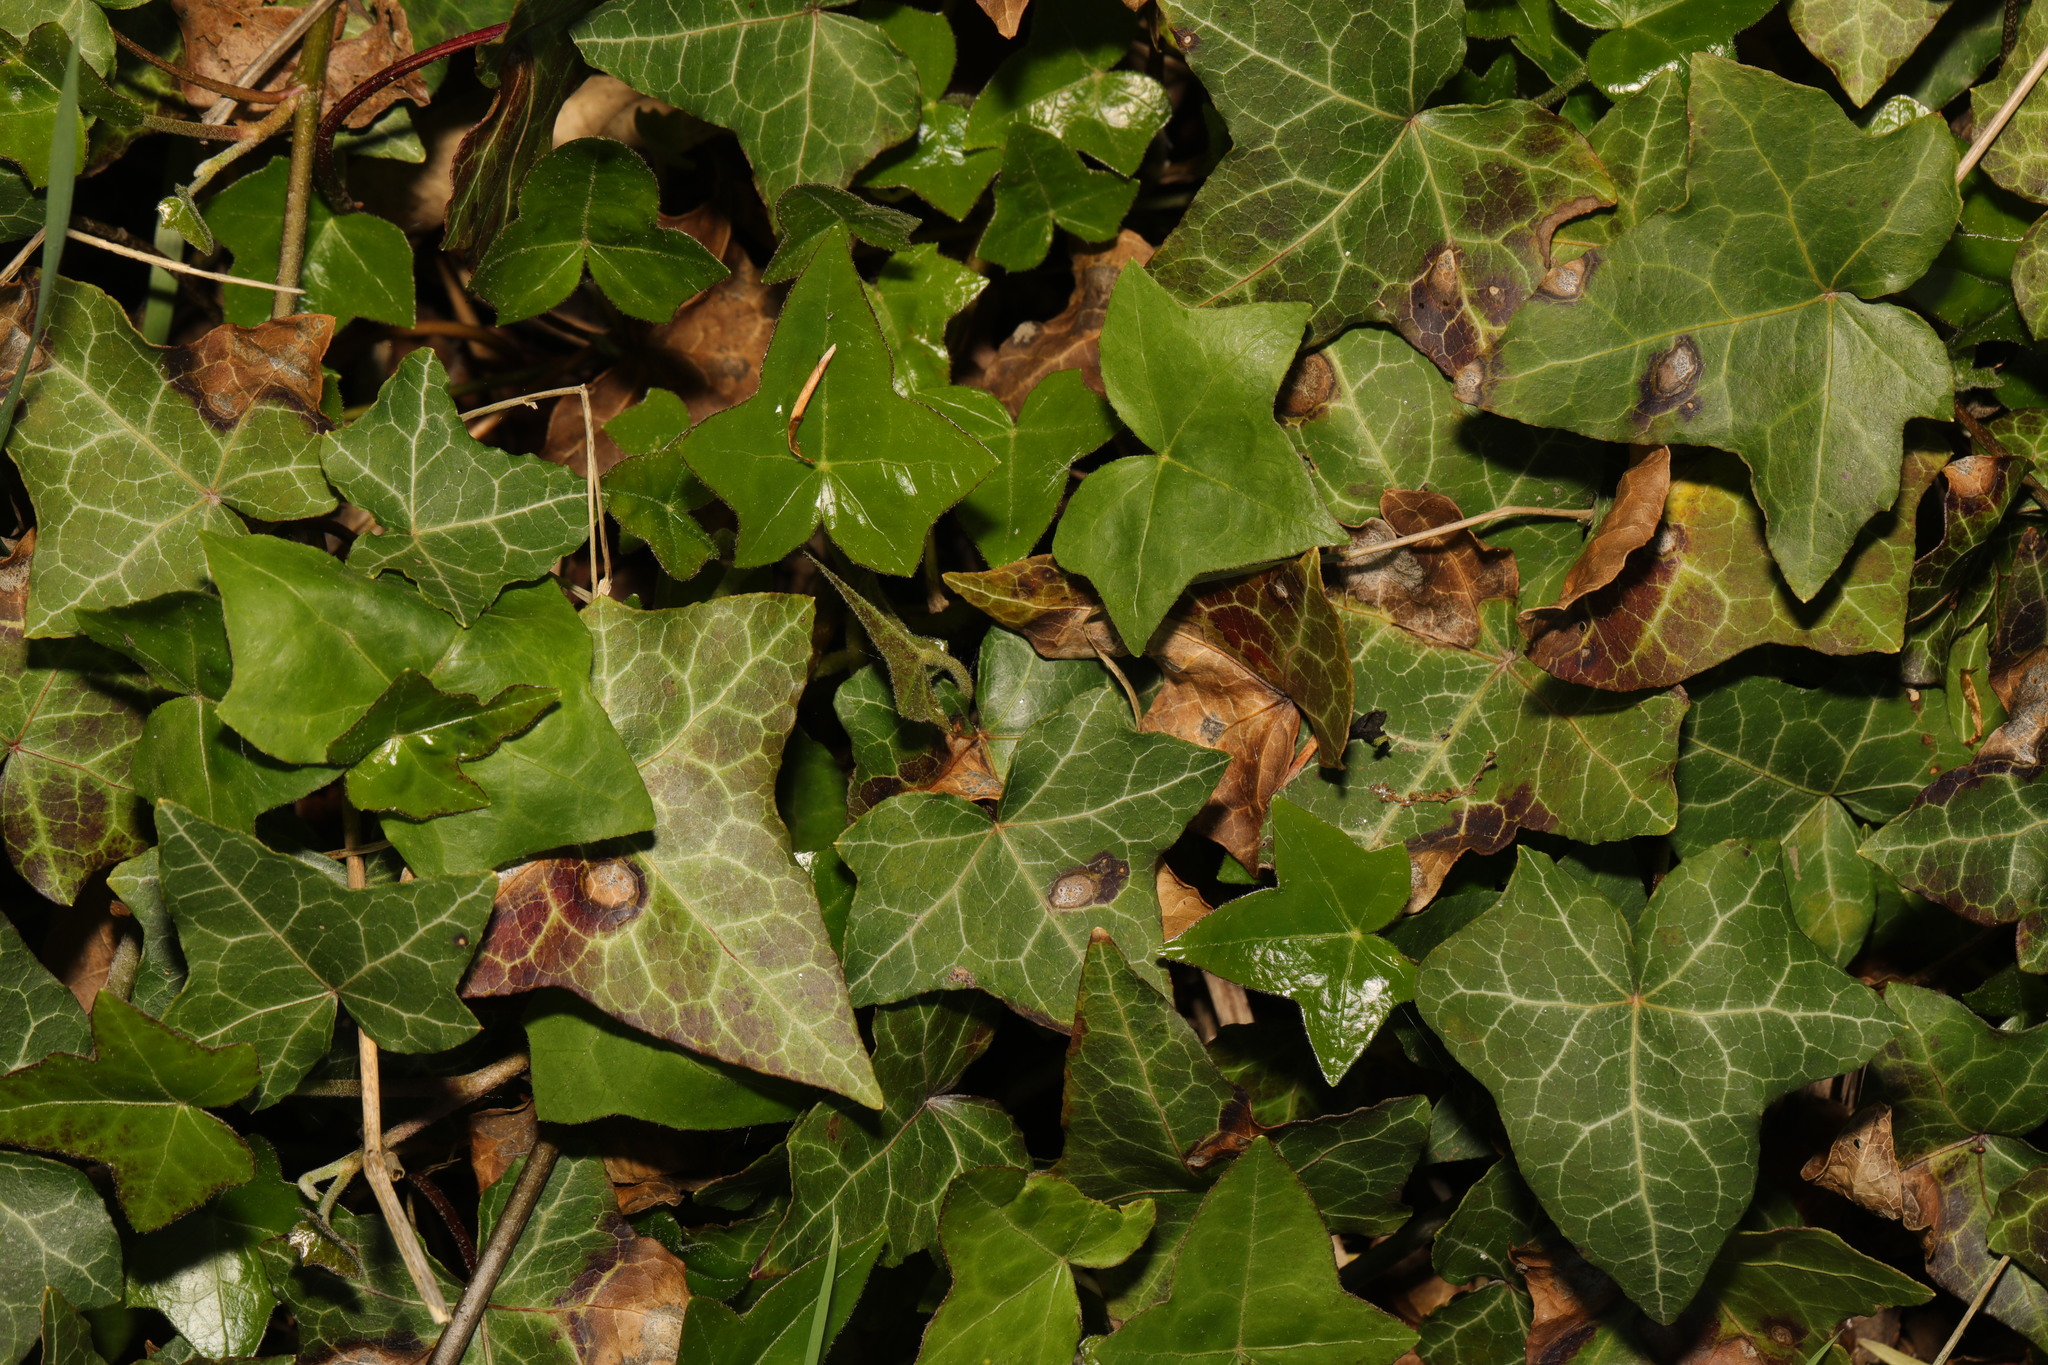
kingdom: Plantae
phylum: Tracheophyta
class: Magnoliopsida
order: Apiales
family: Araliaceae
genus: Hedera
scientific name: Hedera helix
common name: Ivy
